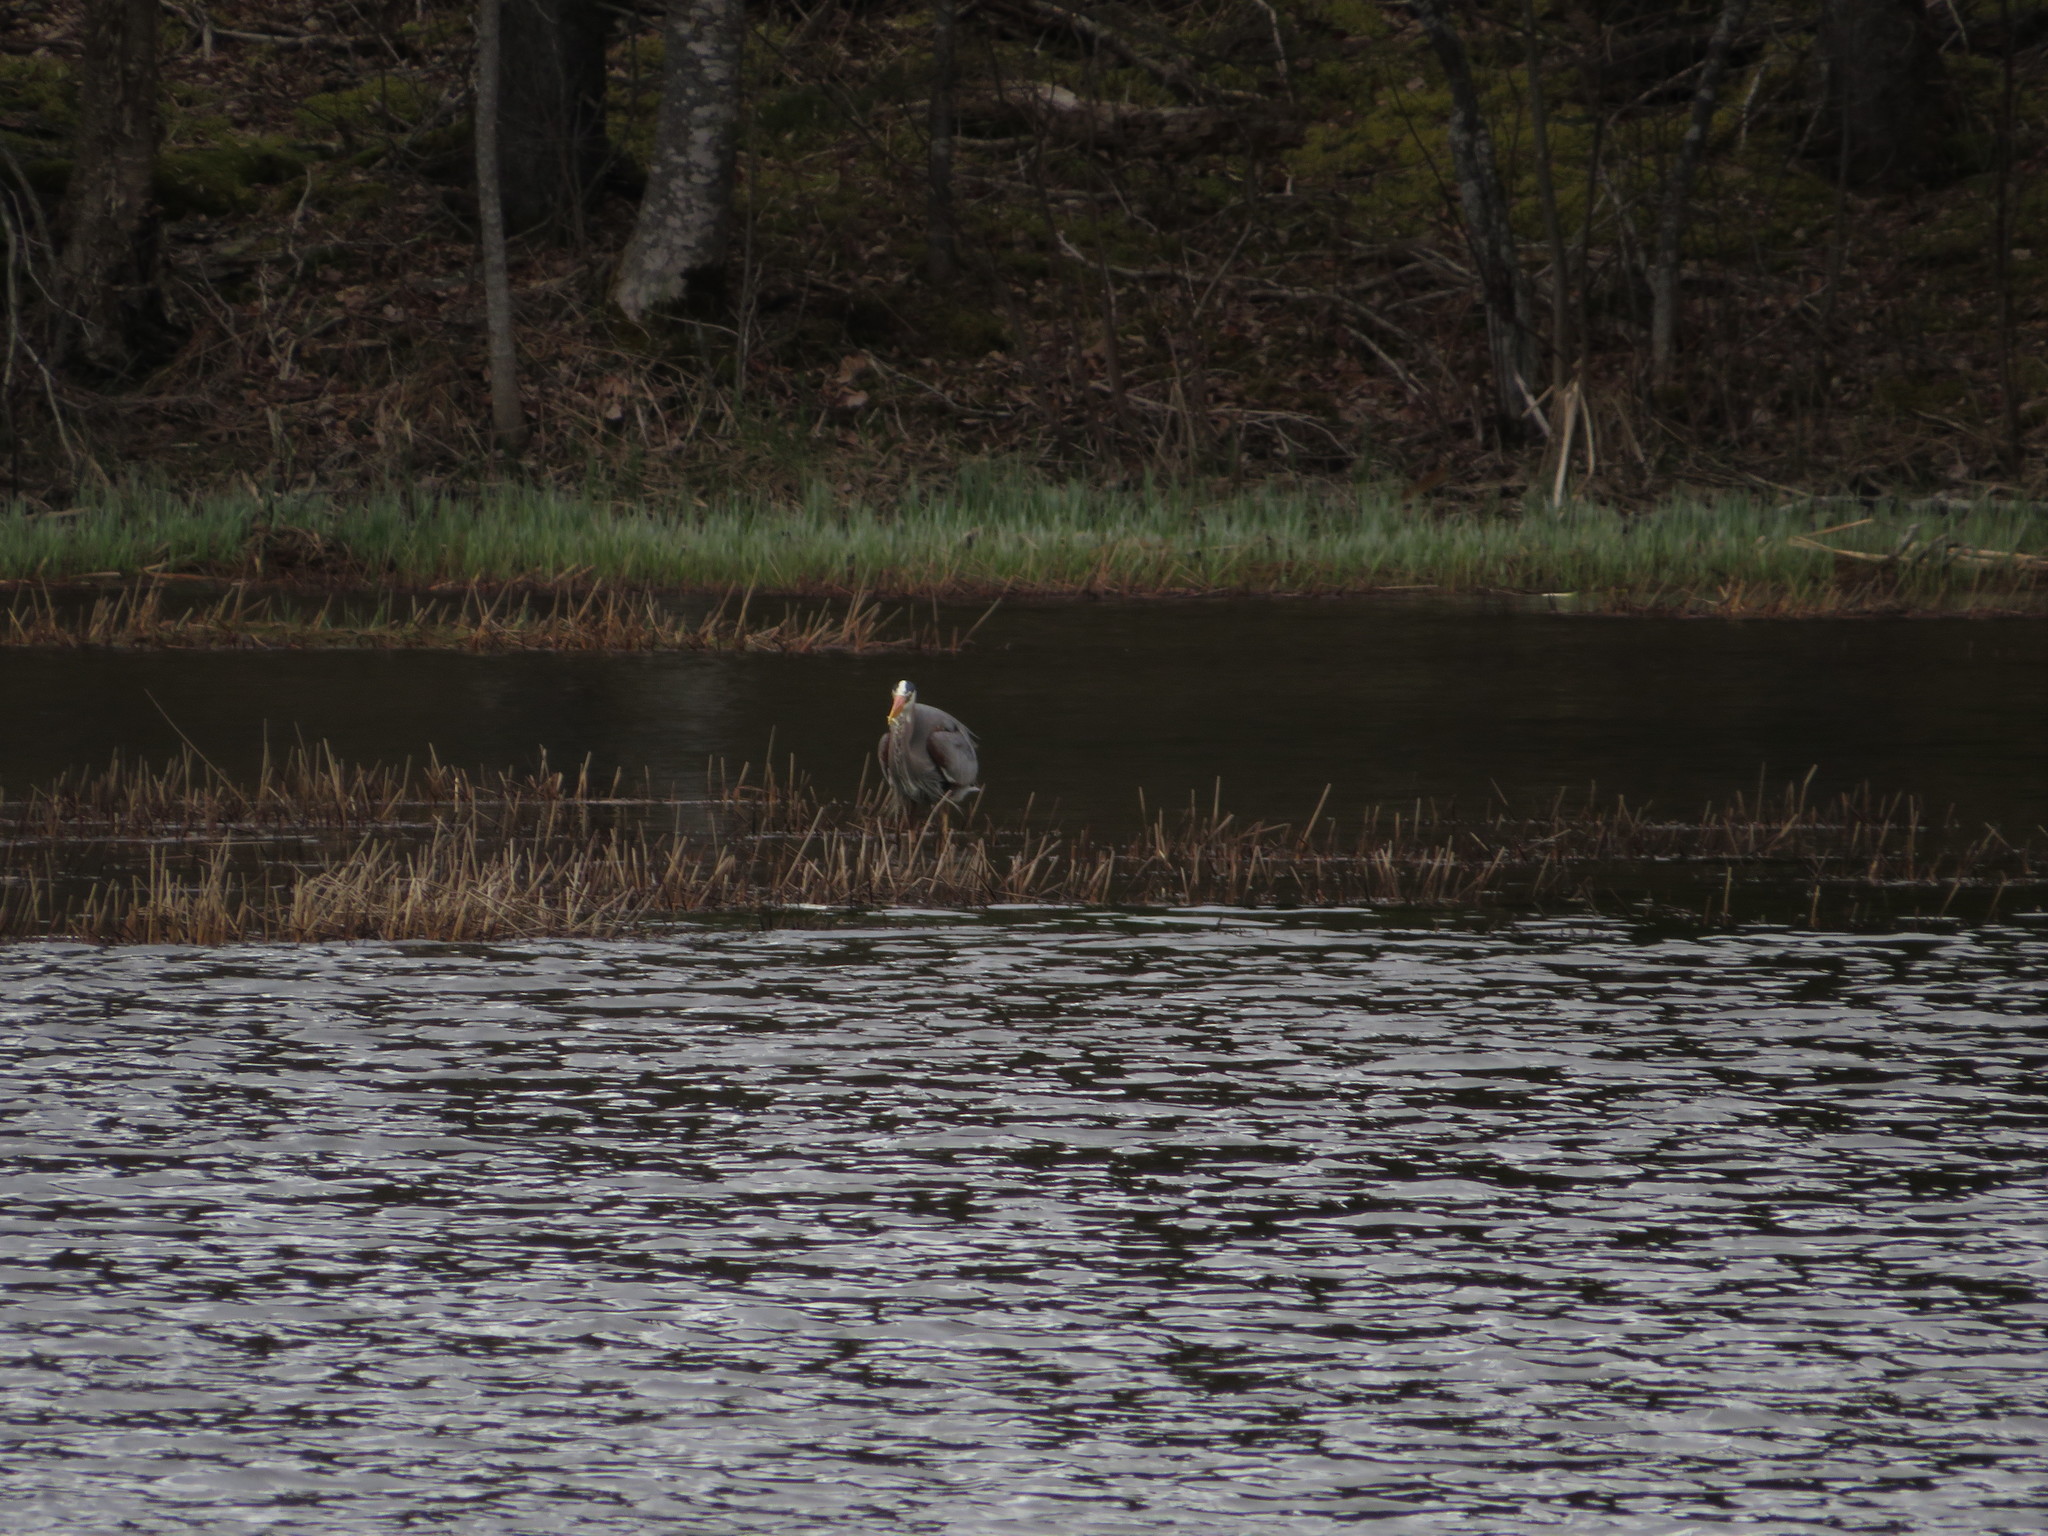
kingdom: Animalia
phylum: Chordata
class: Aves
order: Pelecaniformes
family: Ardeidae
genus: Ardea
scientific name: Ardea herodias
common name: Great blue heron
